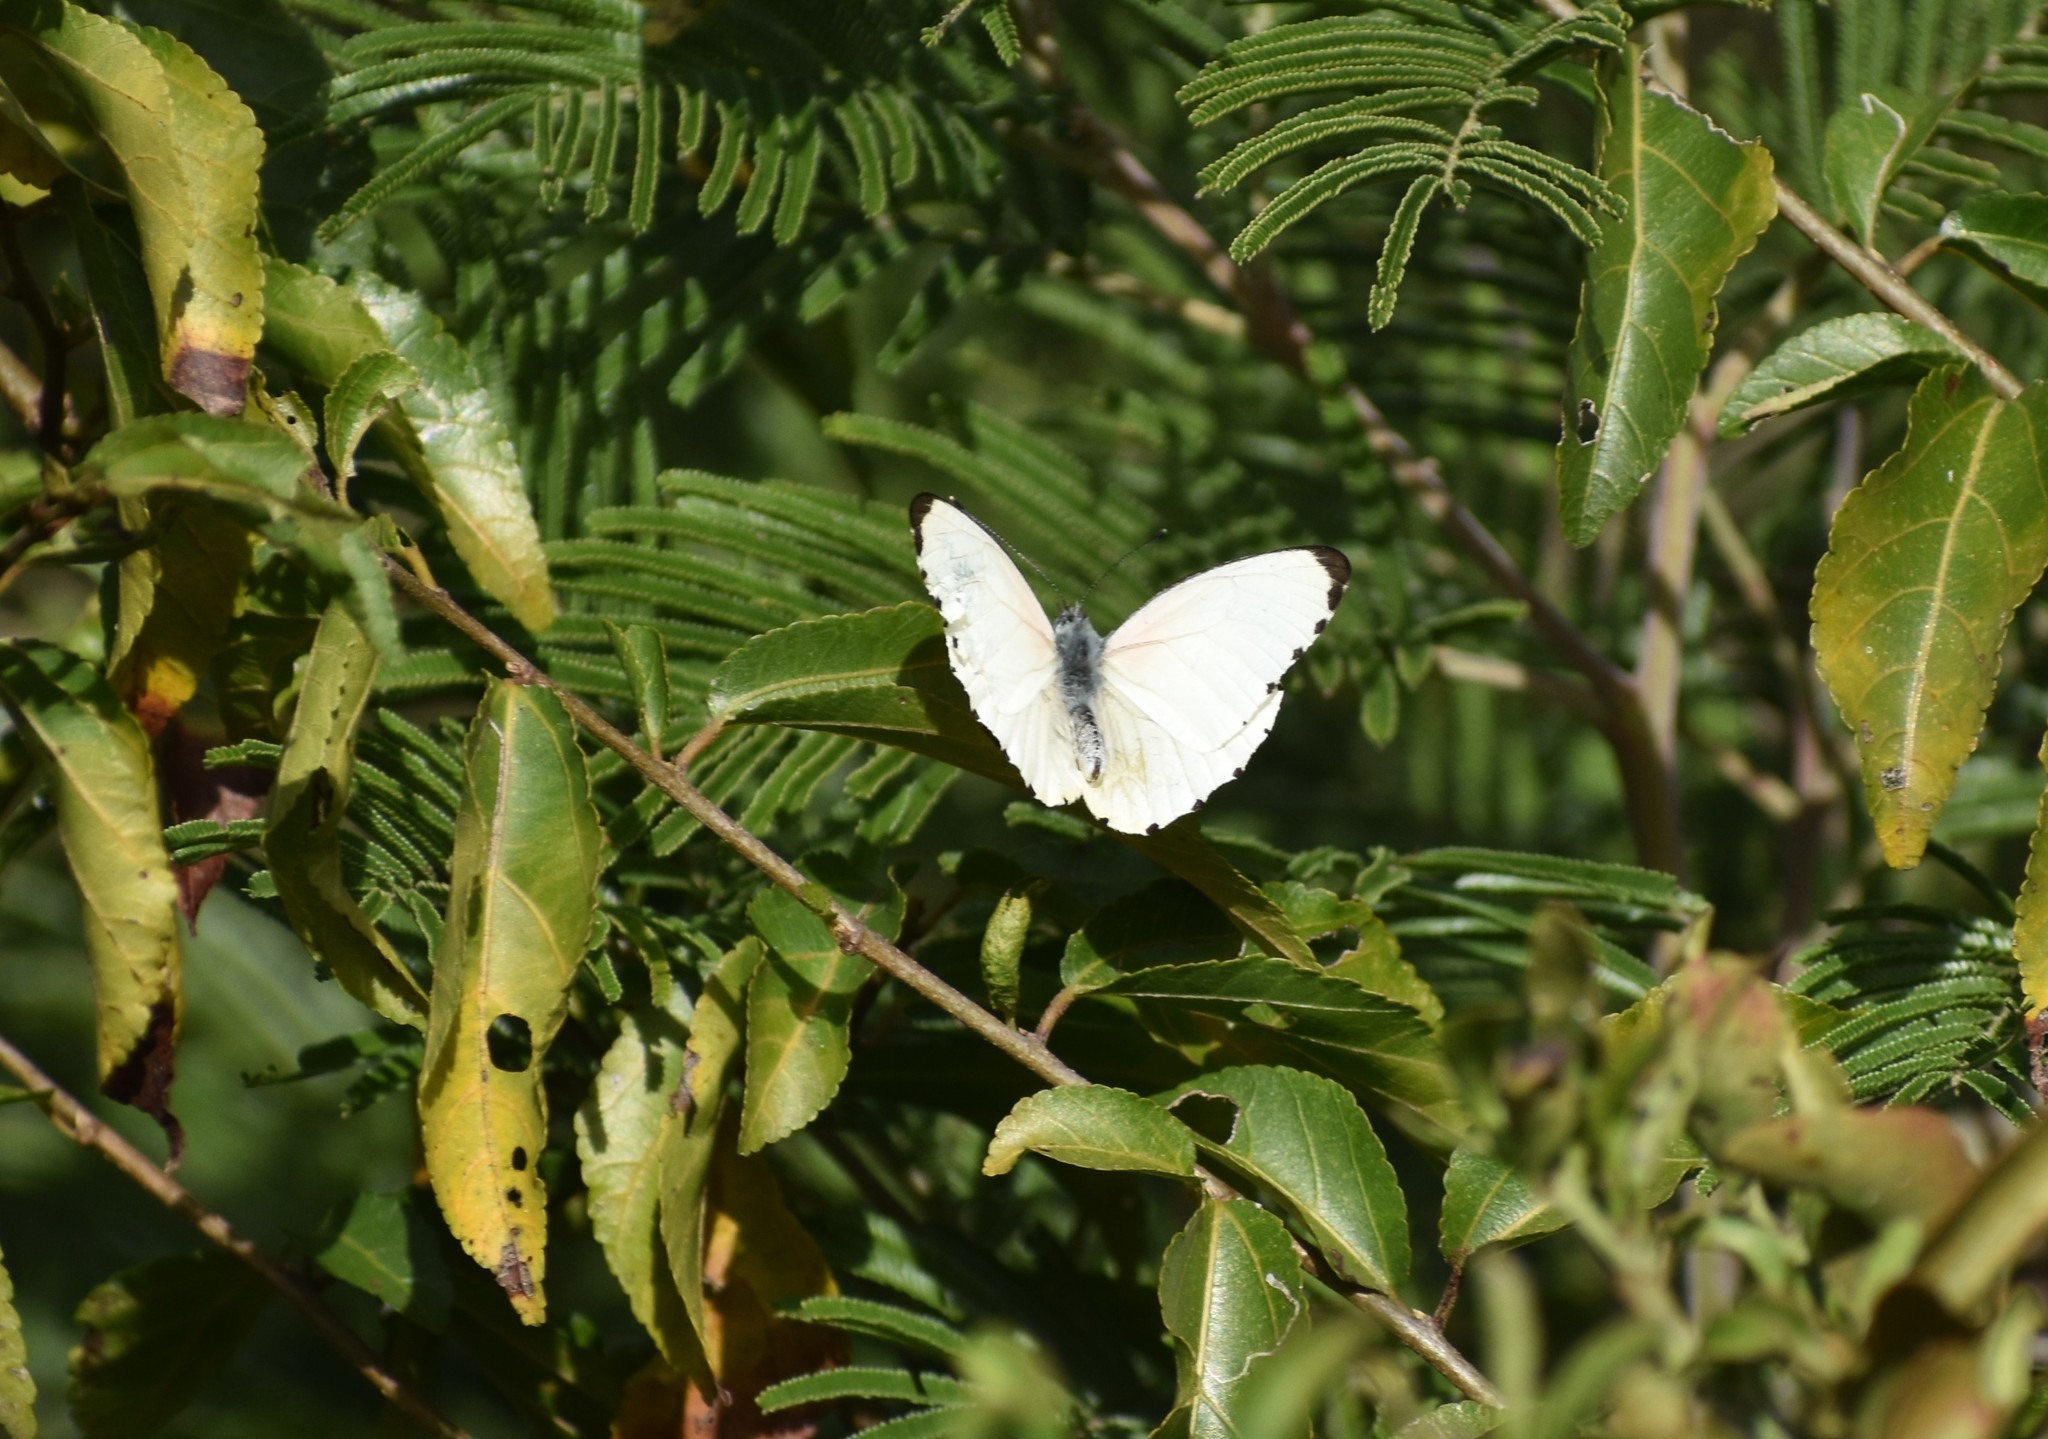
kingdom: Animalia
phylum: Arthropoda
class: Insecta
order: Lepidoptera
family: Pieridae
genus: Mylothris
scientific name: Mylothris agathina
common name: Eastern dotted border
